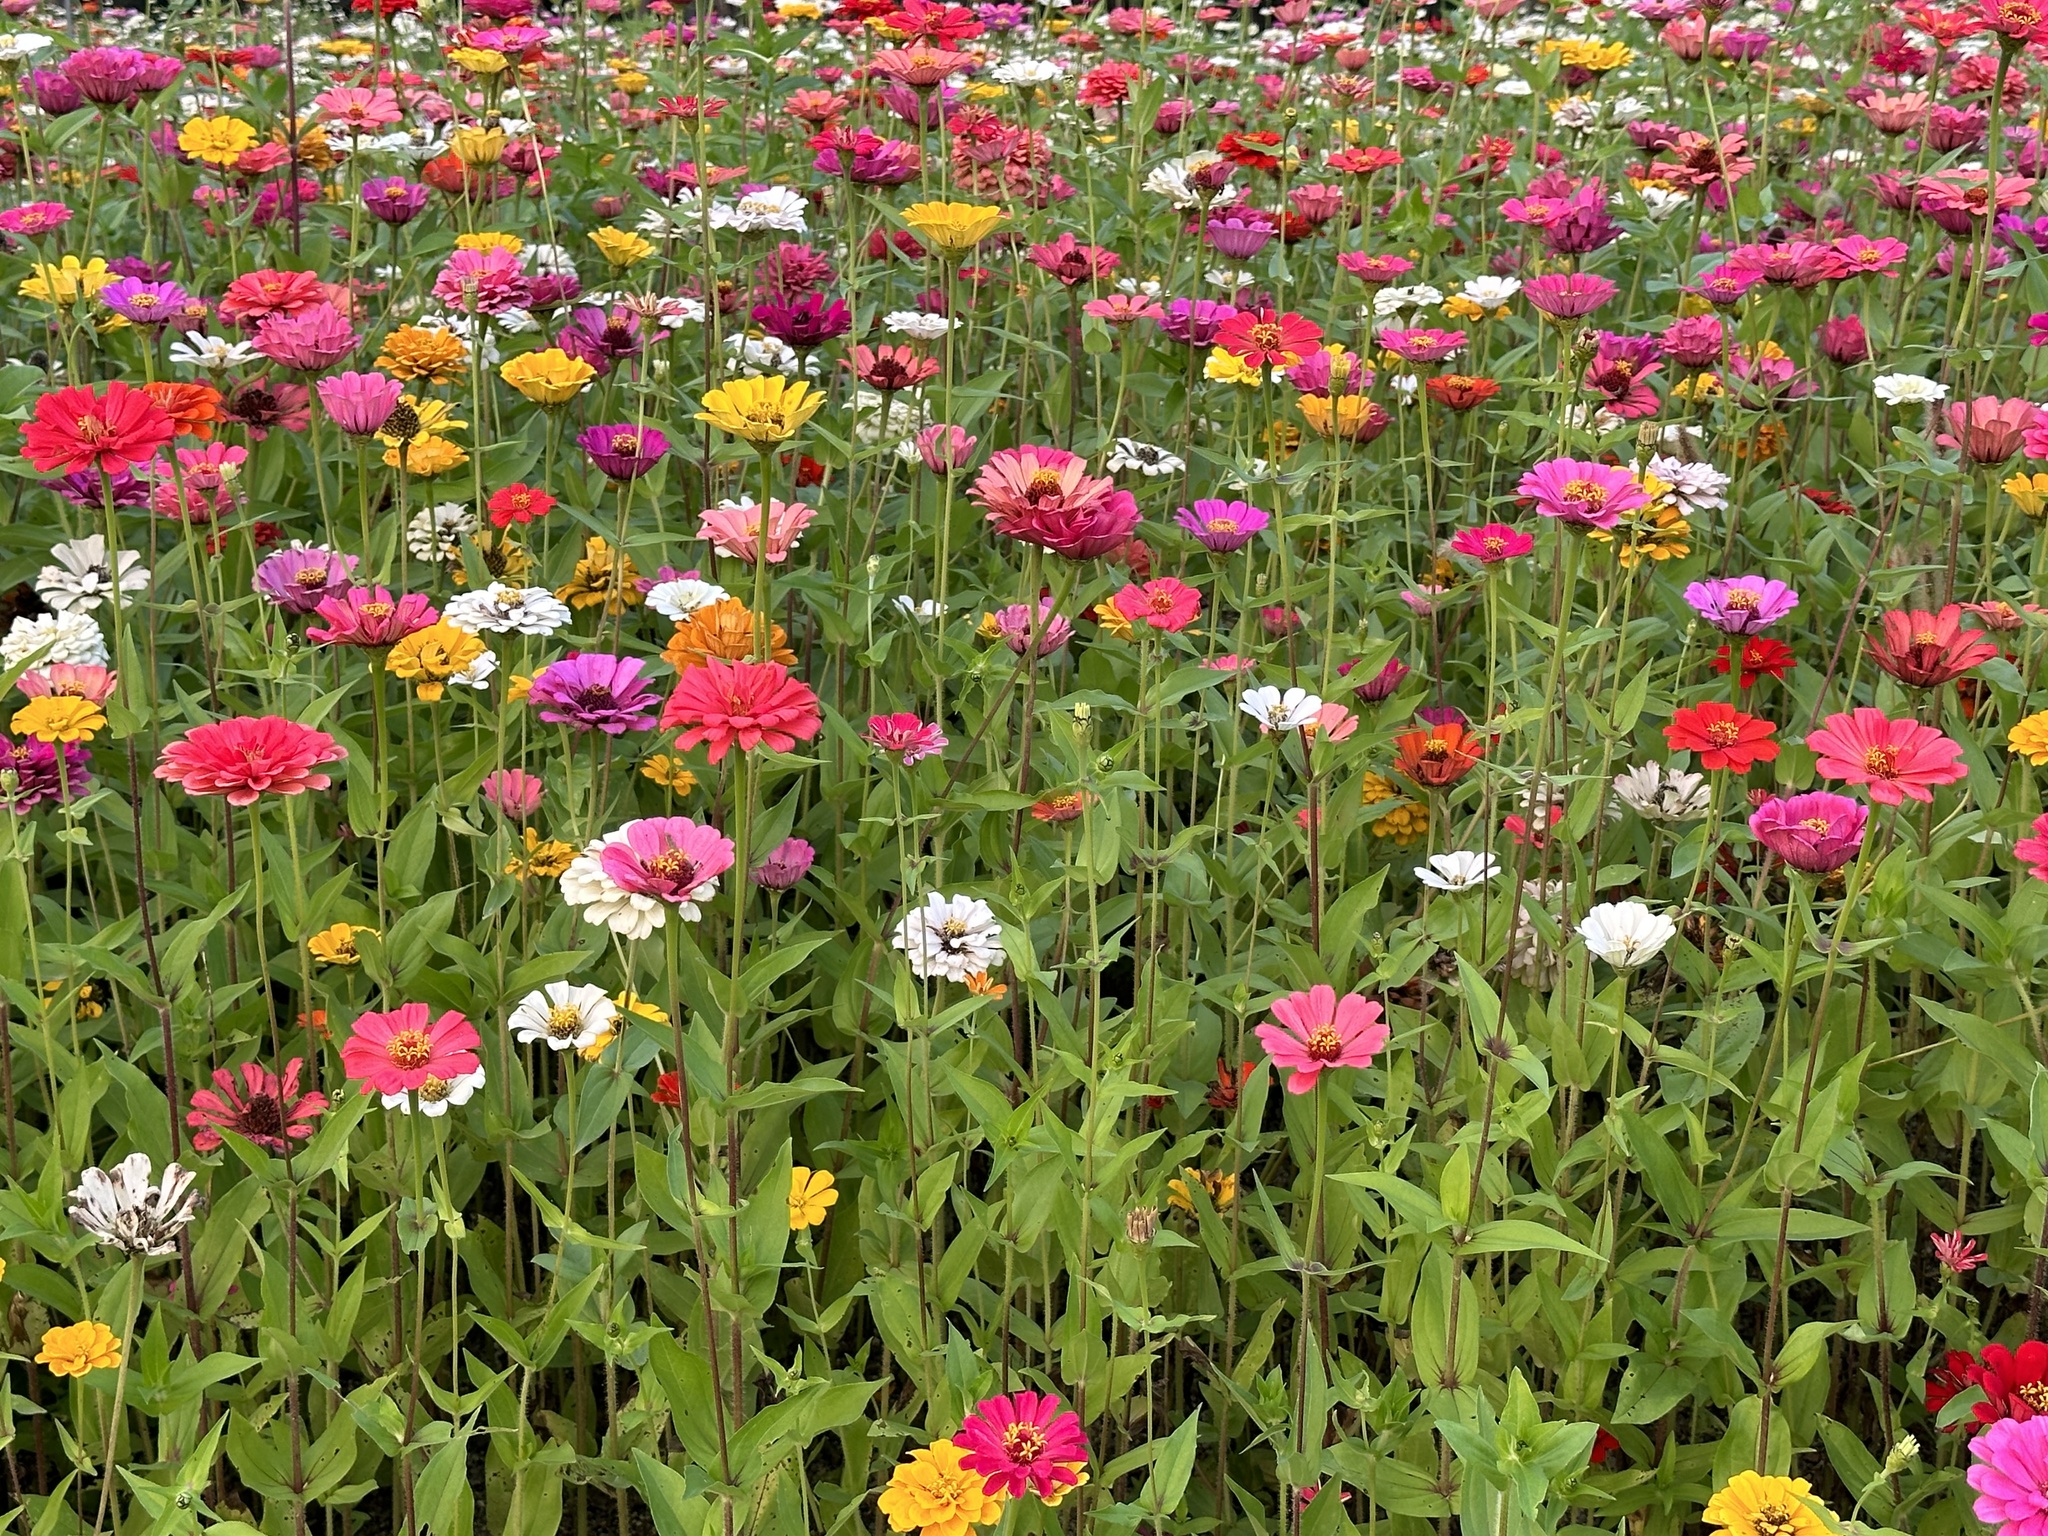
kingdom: Plantae
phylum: Tracheophyta
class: Magnoliopsida
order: Asterales
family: Asteraceae
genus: Zinnia
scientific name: Zinnia elegans
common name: Youth-and-age
